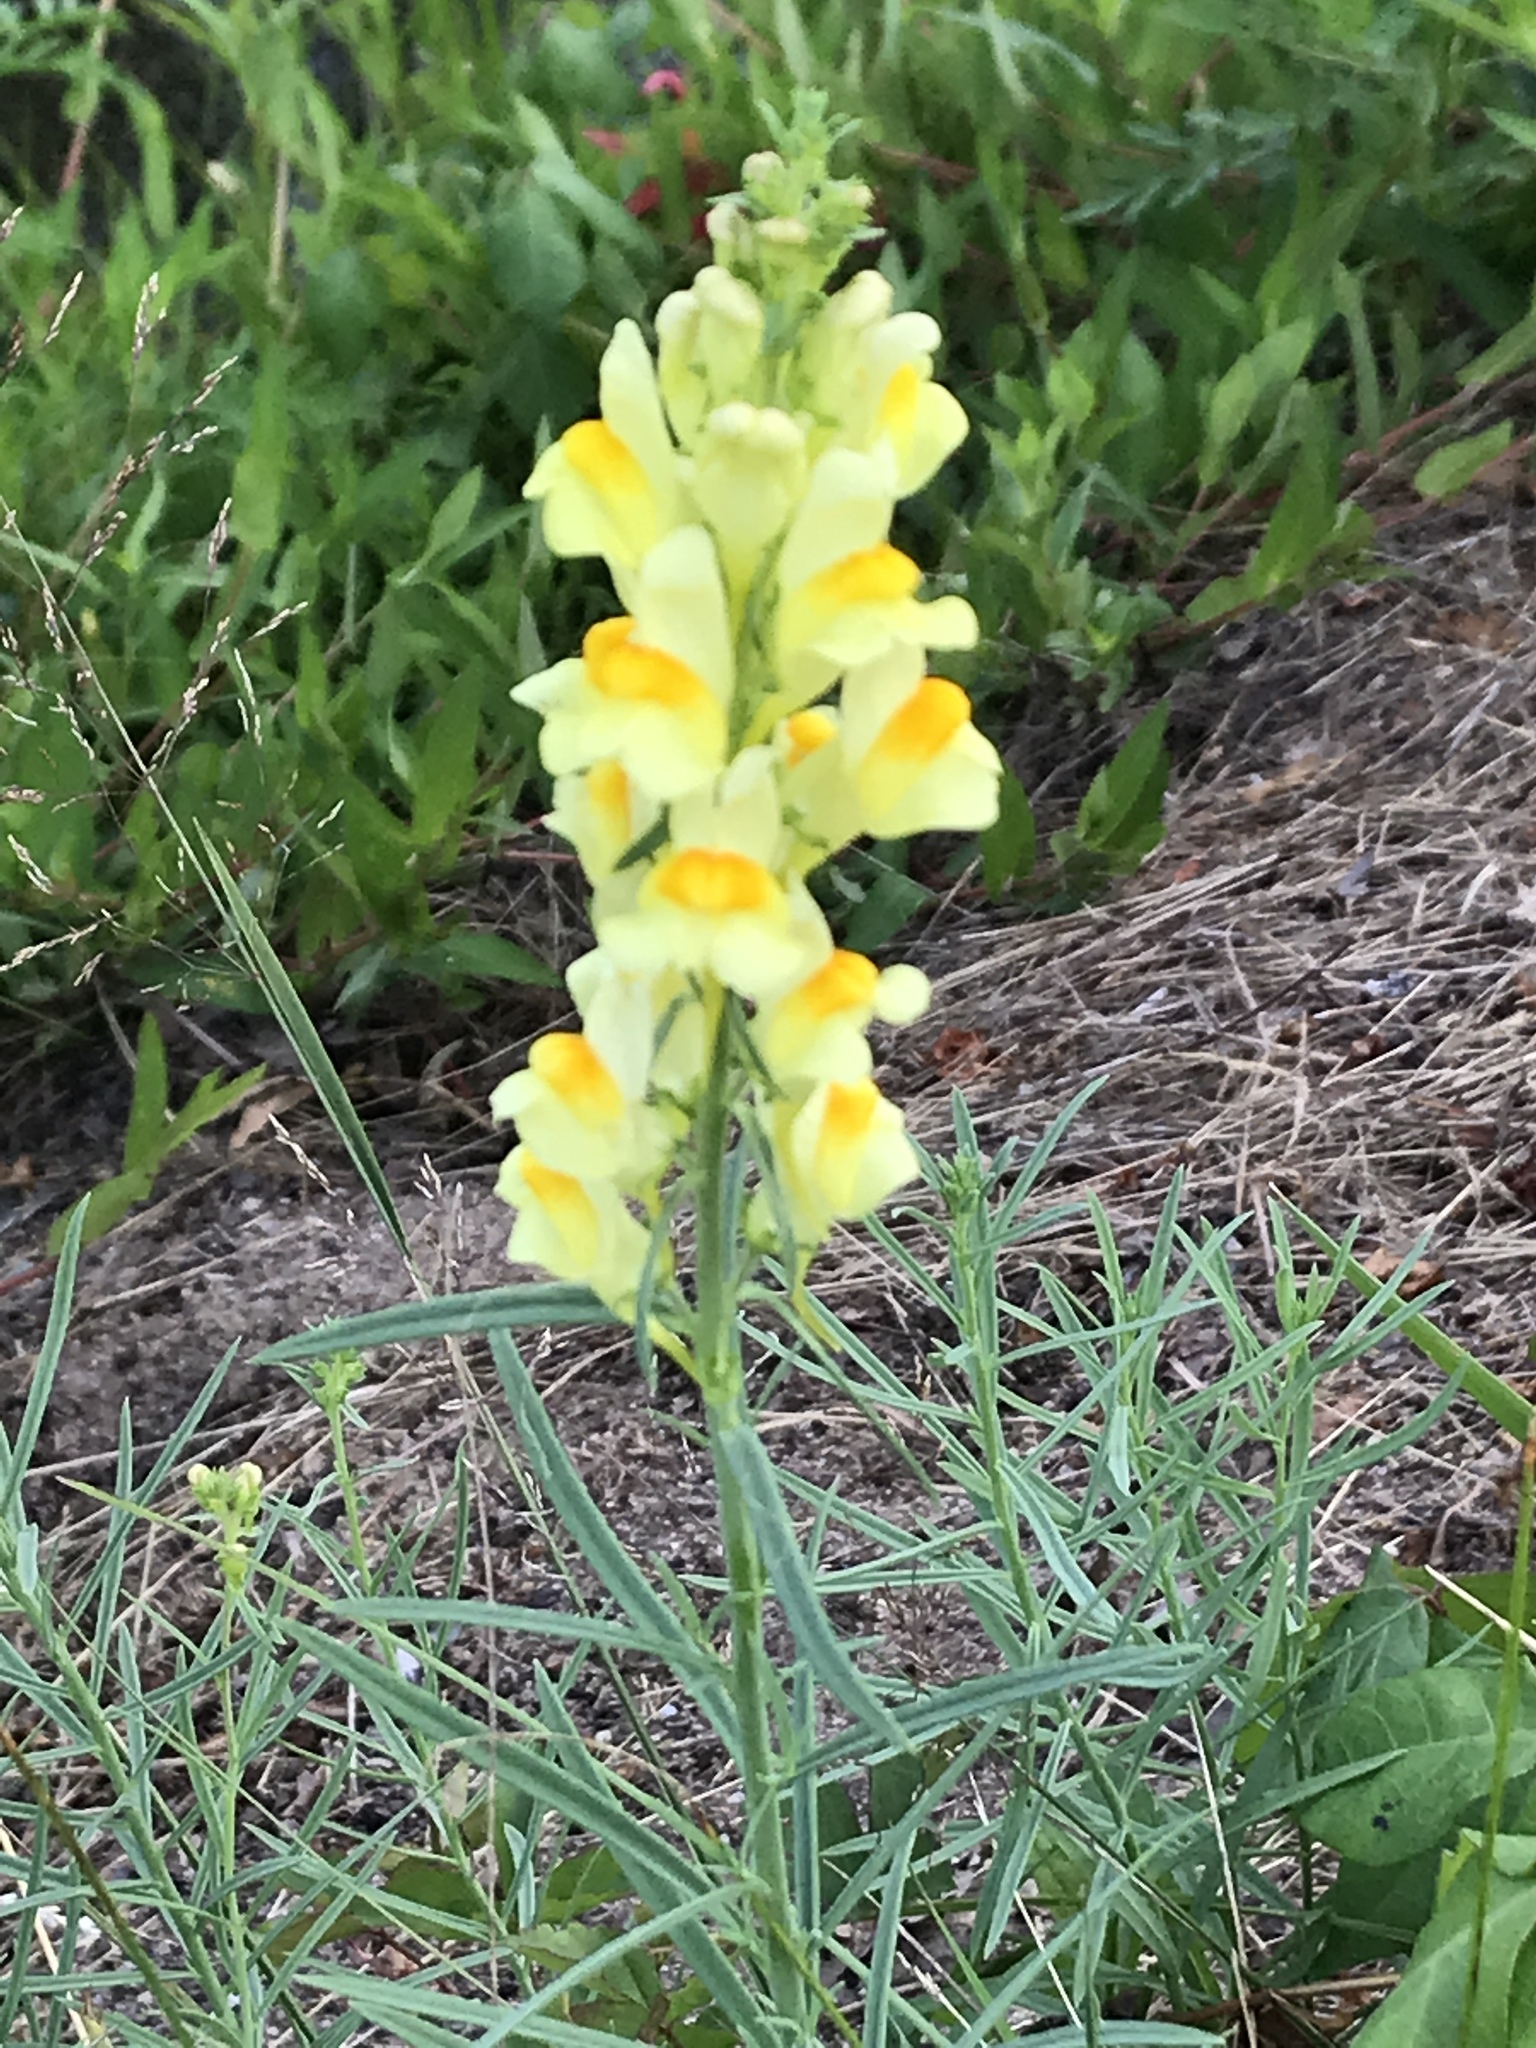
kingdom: Plantae
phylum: Tracheophyta
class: Magnoliopsida
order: Lamiales
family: Plantaginaceae
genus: Linaria
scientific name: Linaria vulgaris
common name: Butter and eggs
